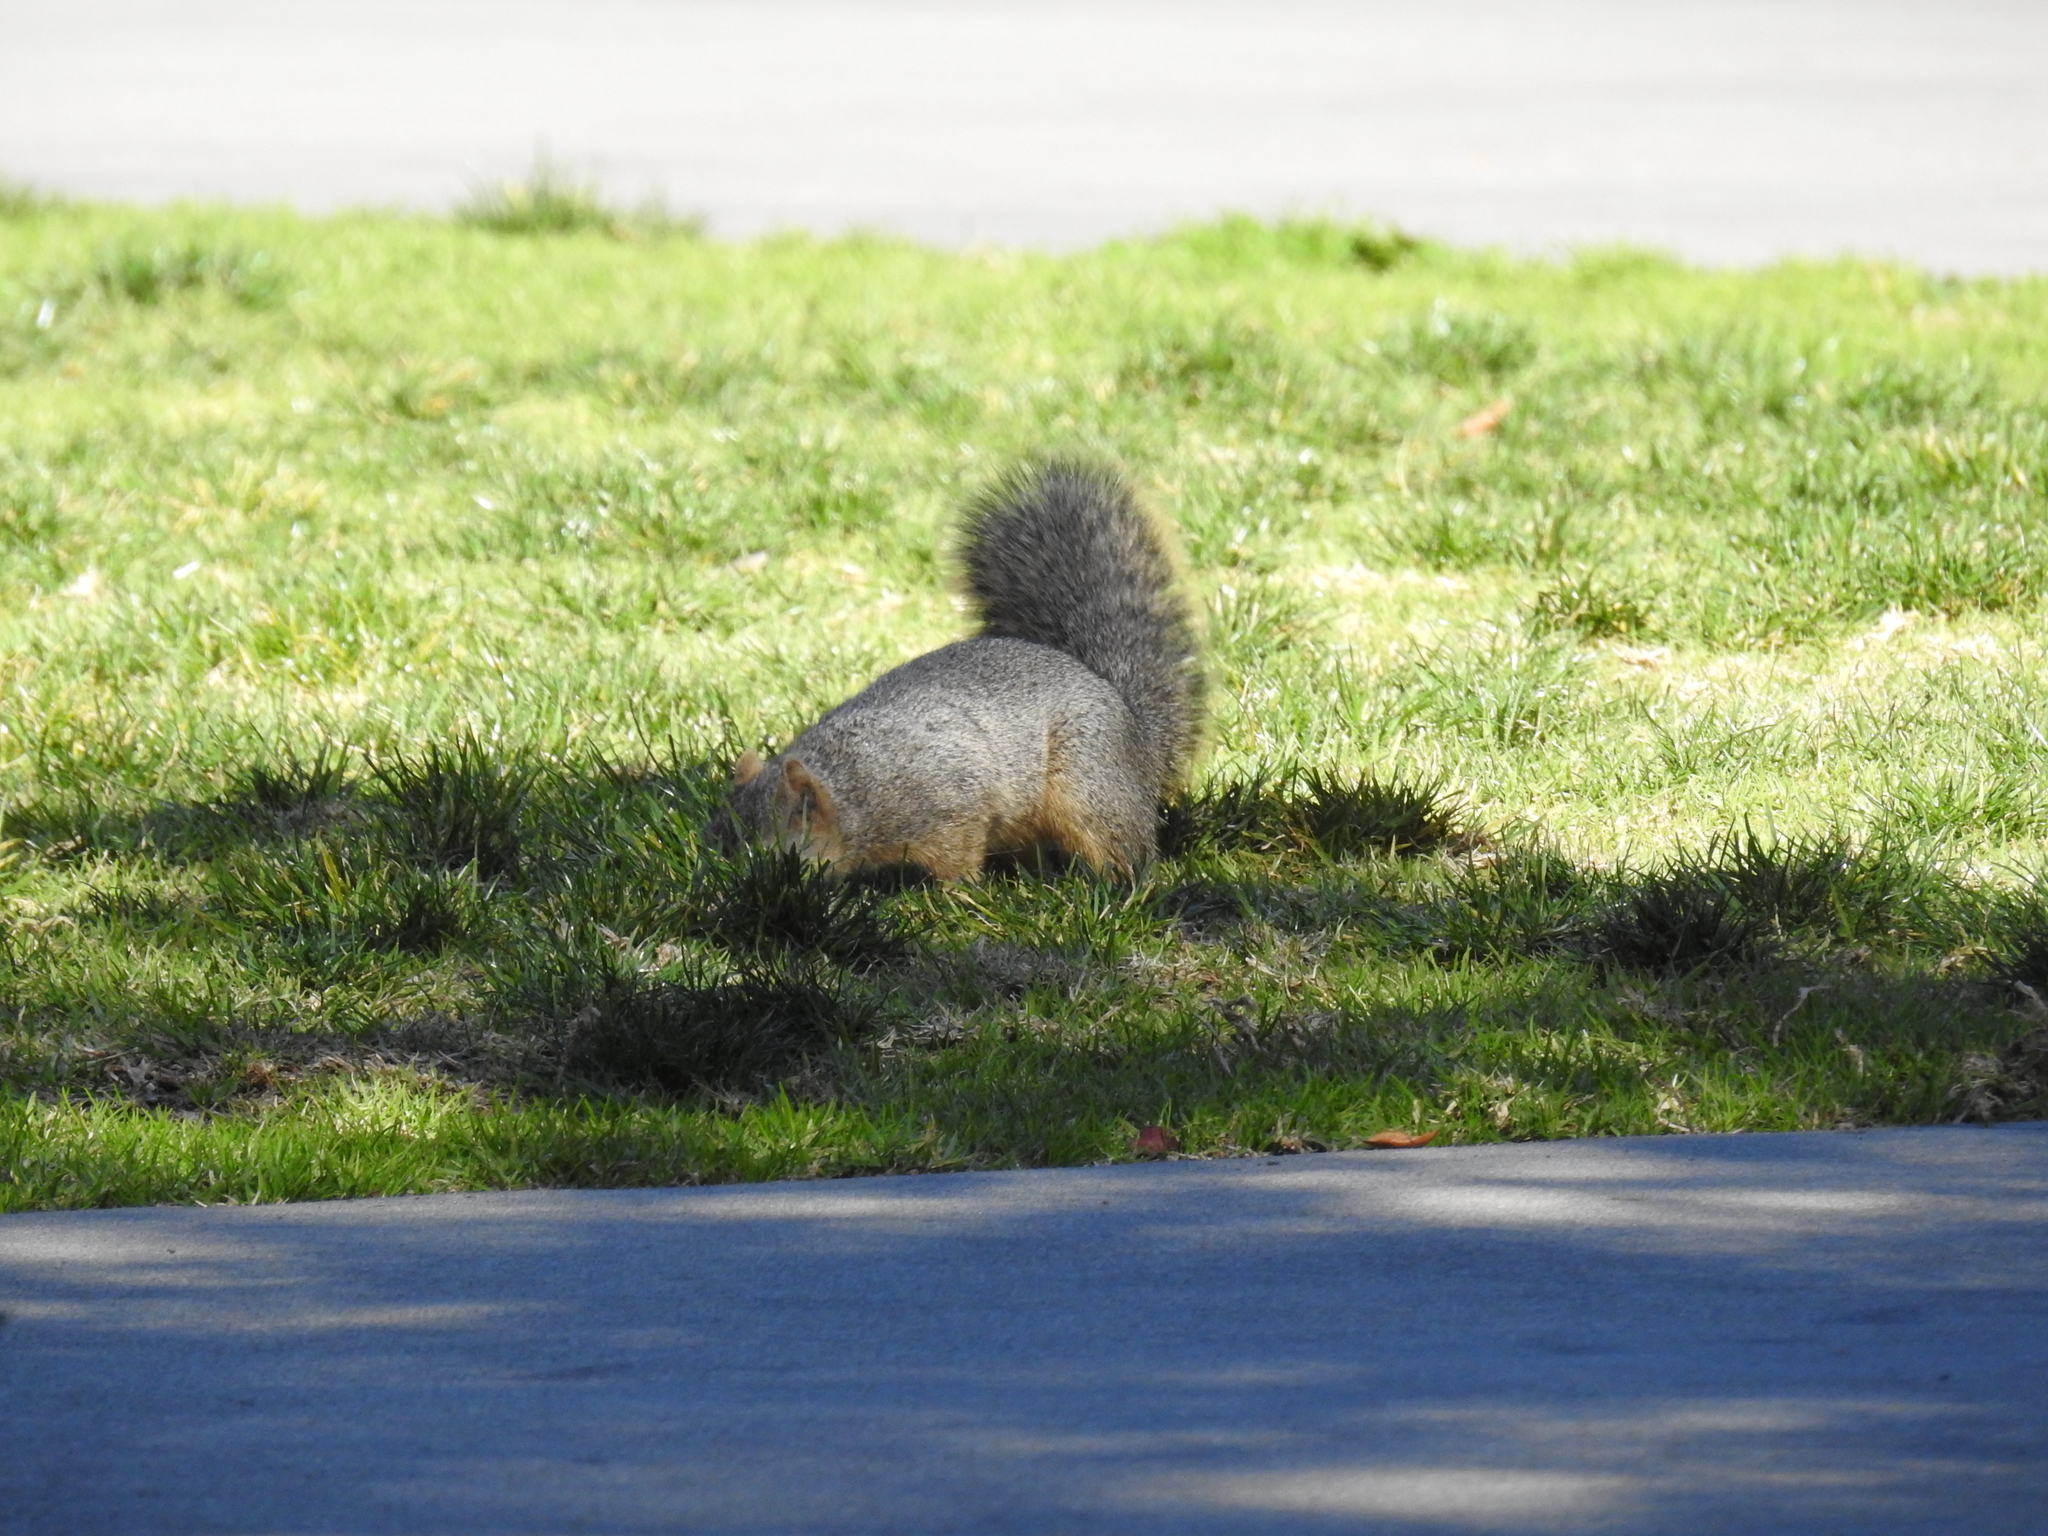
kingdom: Animalia
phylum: Chordata
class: Mammalia
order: Rodentia
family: Sciuridae
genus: Sciurus
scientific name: Sciurus niger
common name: Fox squirrel
